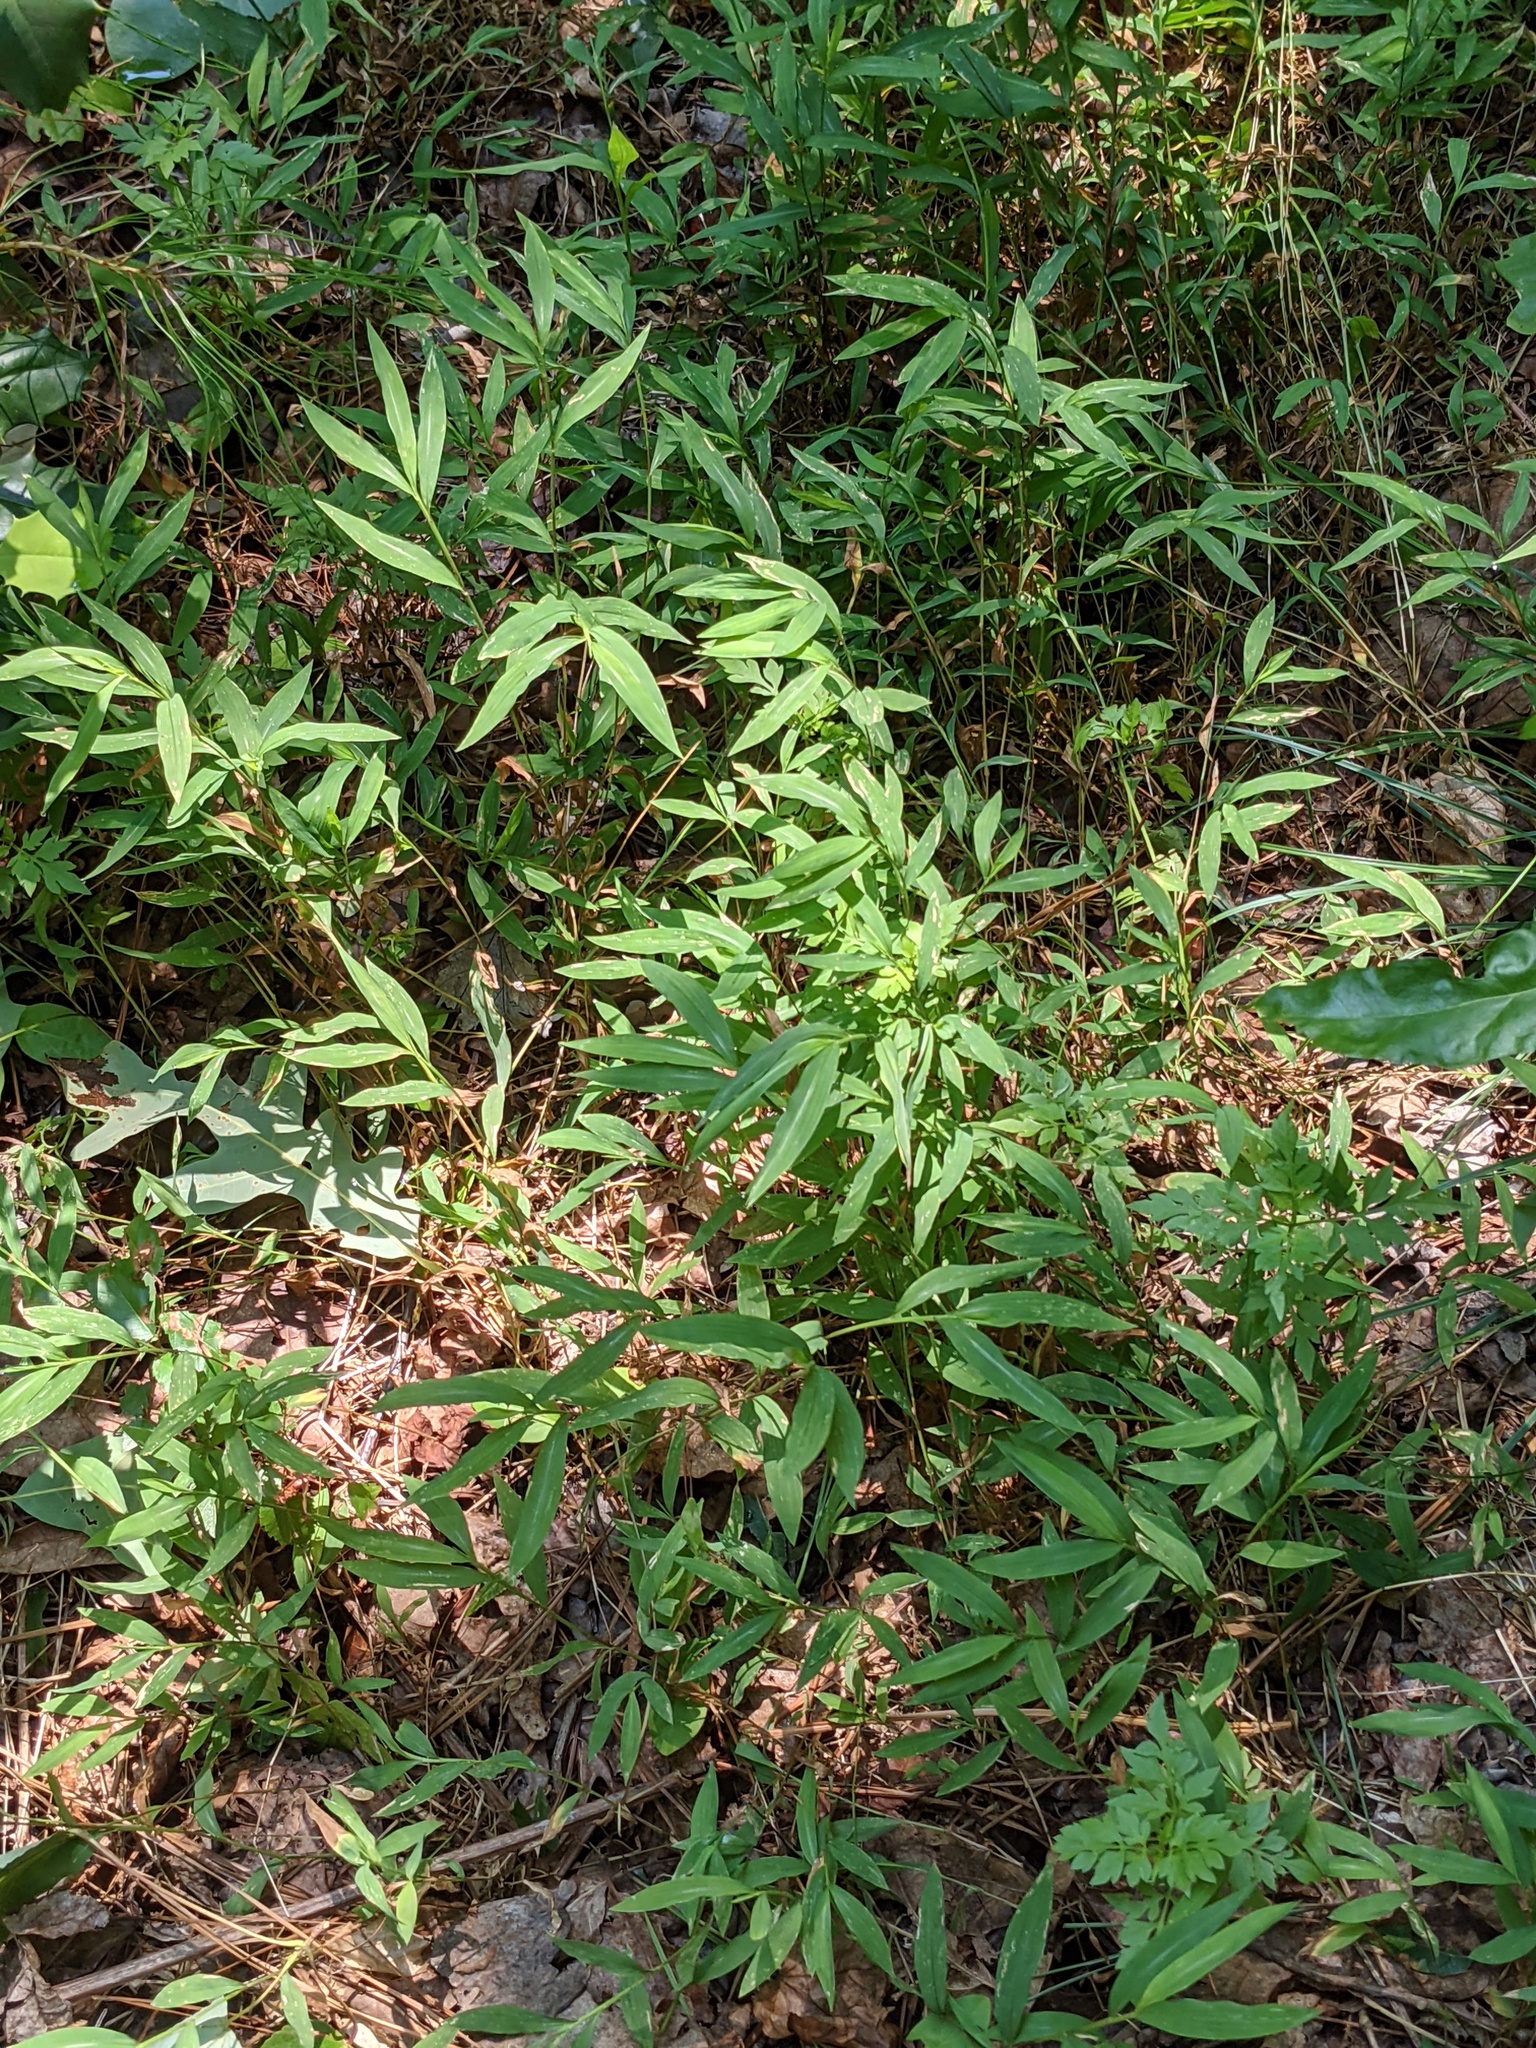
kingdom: Plantae
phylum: Tracheophyta
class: Liliopsida
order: Poales
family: Poaceae
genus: Microstegium
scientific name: Microstegium vimineum
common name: Japanese stiltgrass
